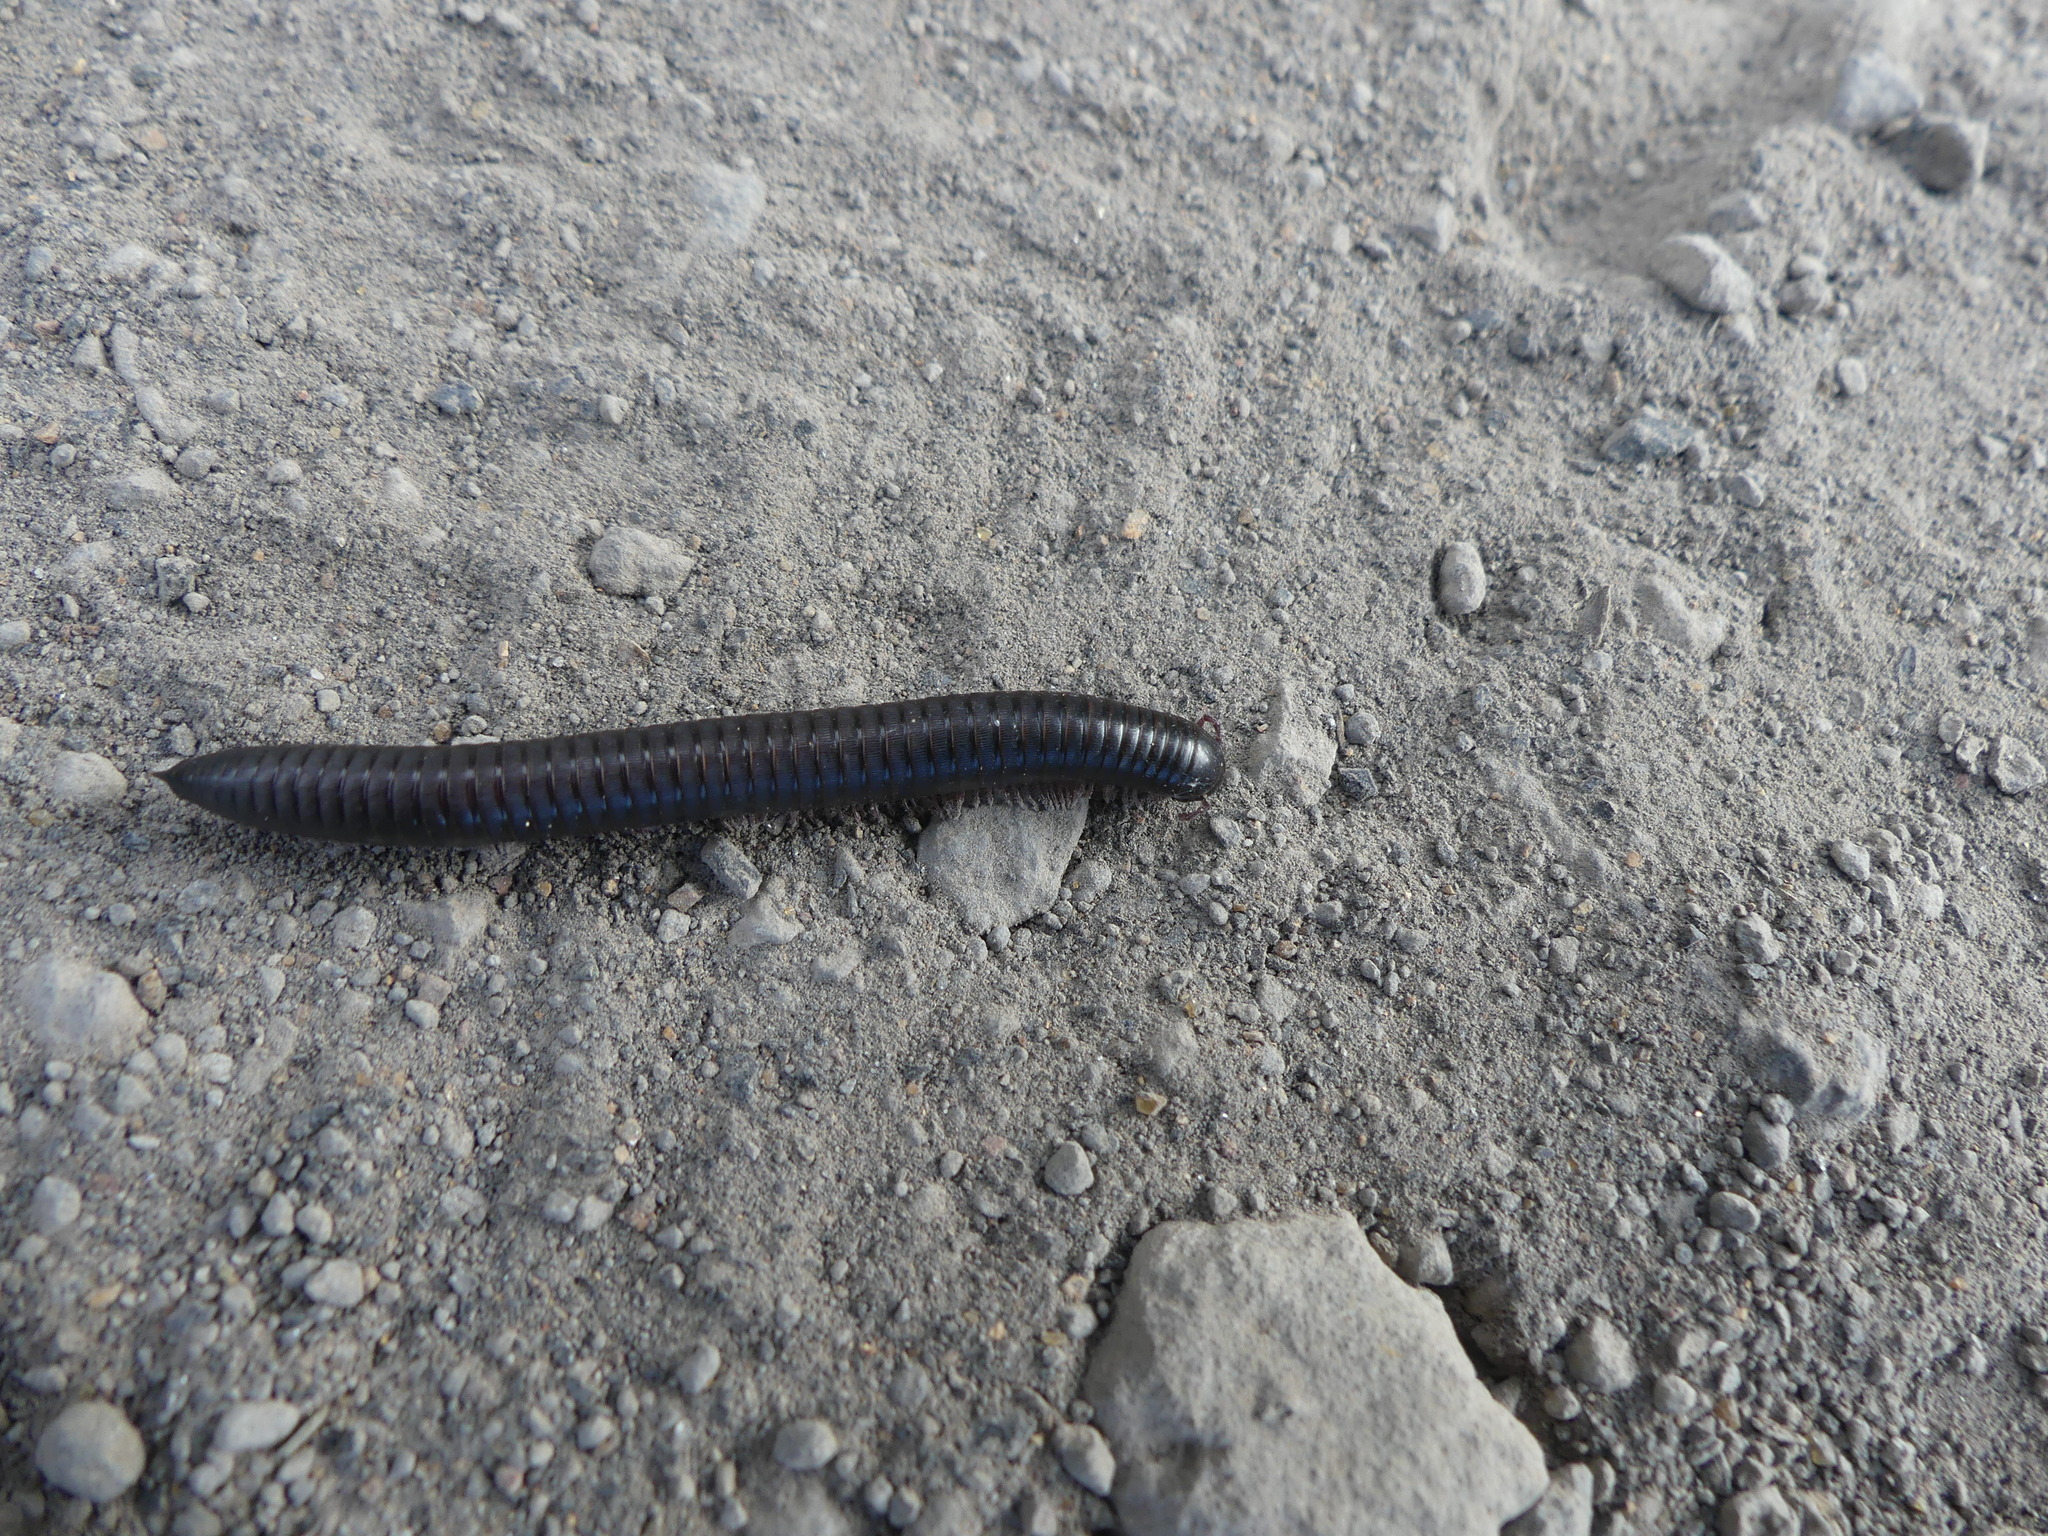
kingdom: Animalia
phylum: Arthropoda
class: Diplopoda
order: Julida
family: Julidae
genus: Ommatoiulus
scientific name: Ommatoiulus moreleti
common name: Portuguese millipede
